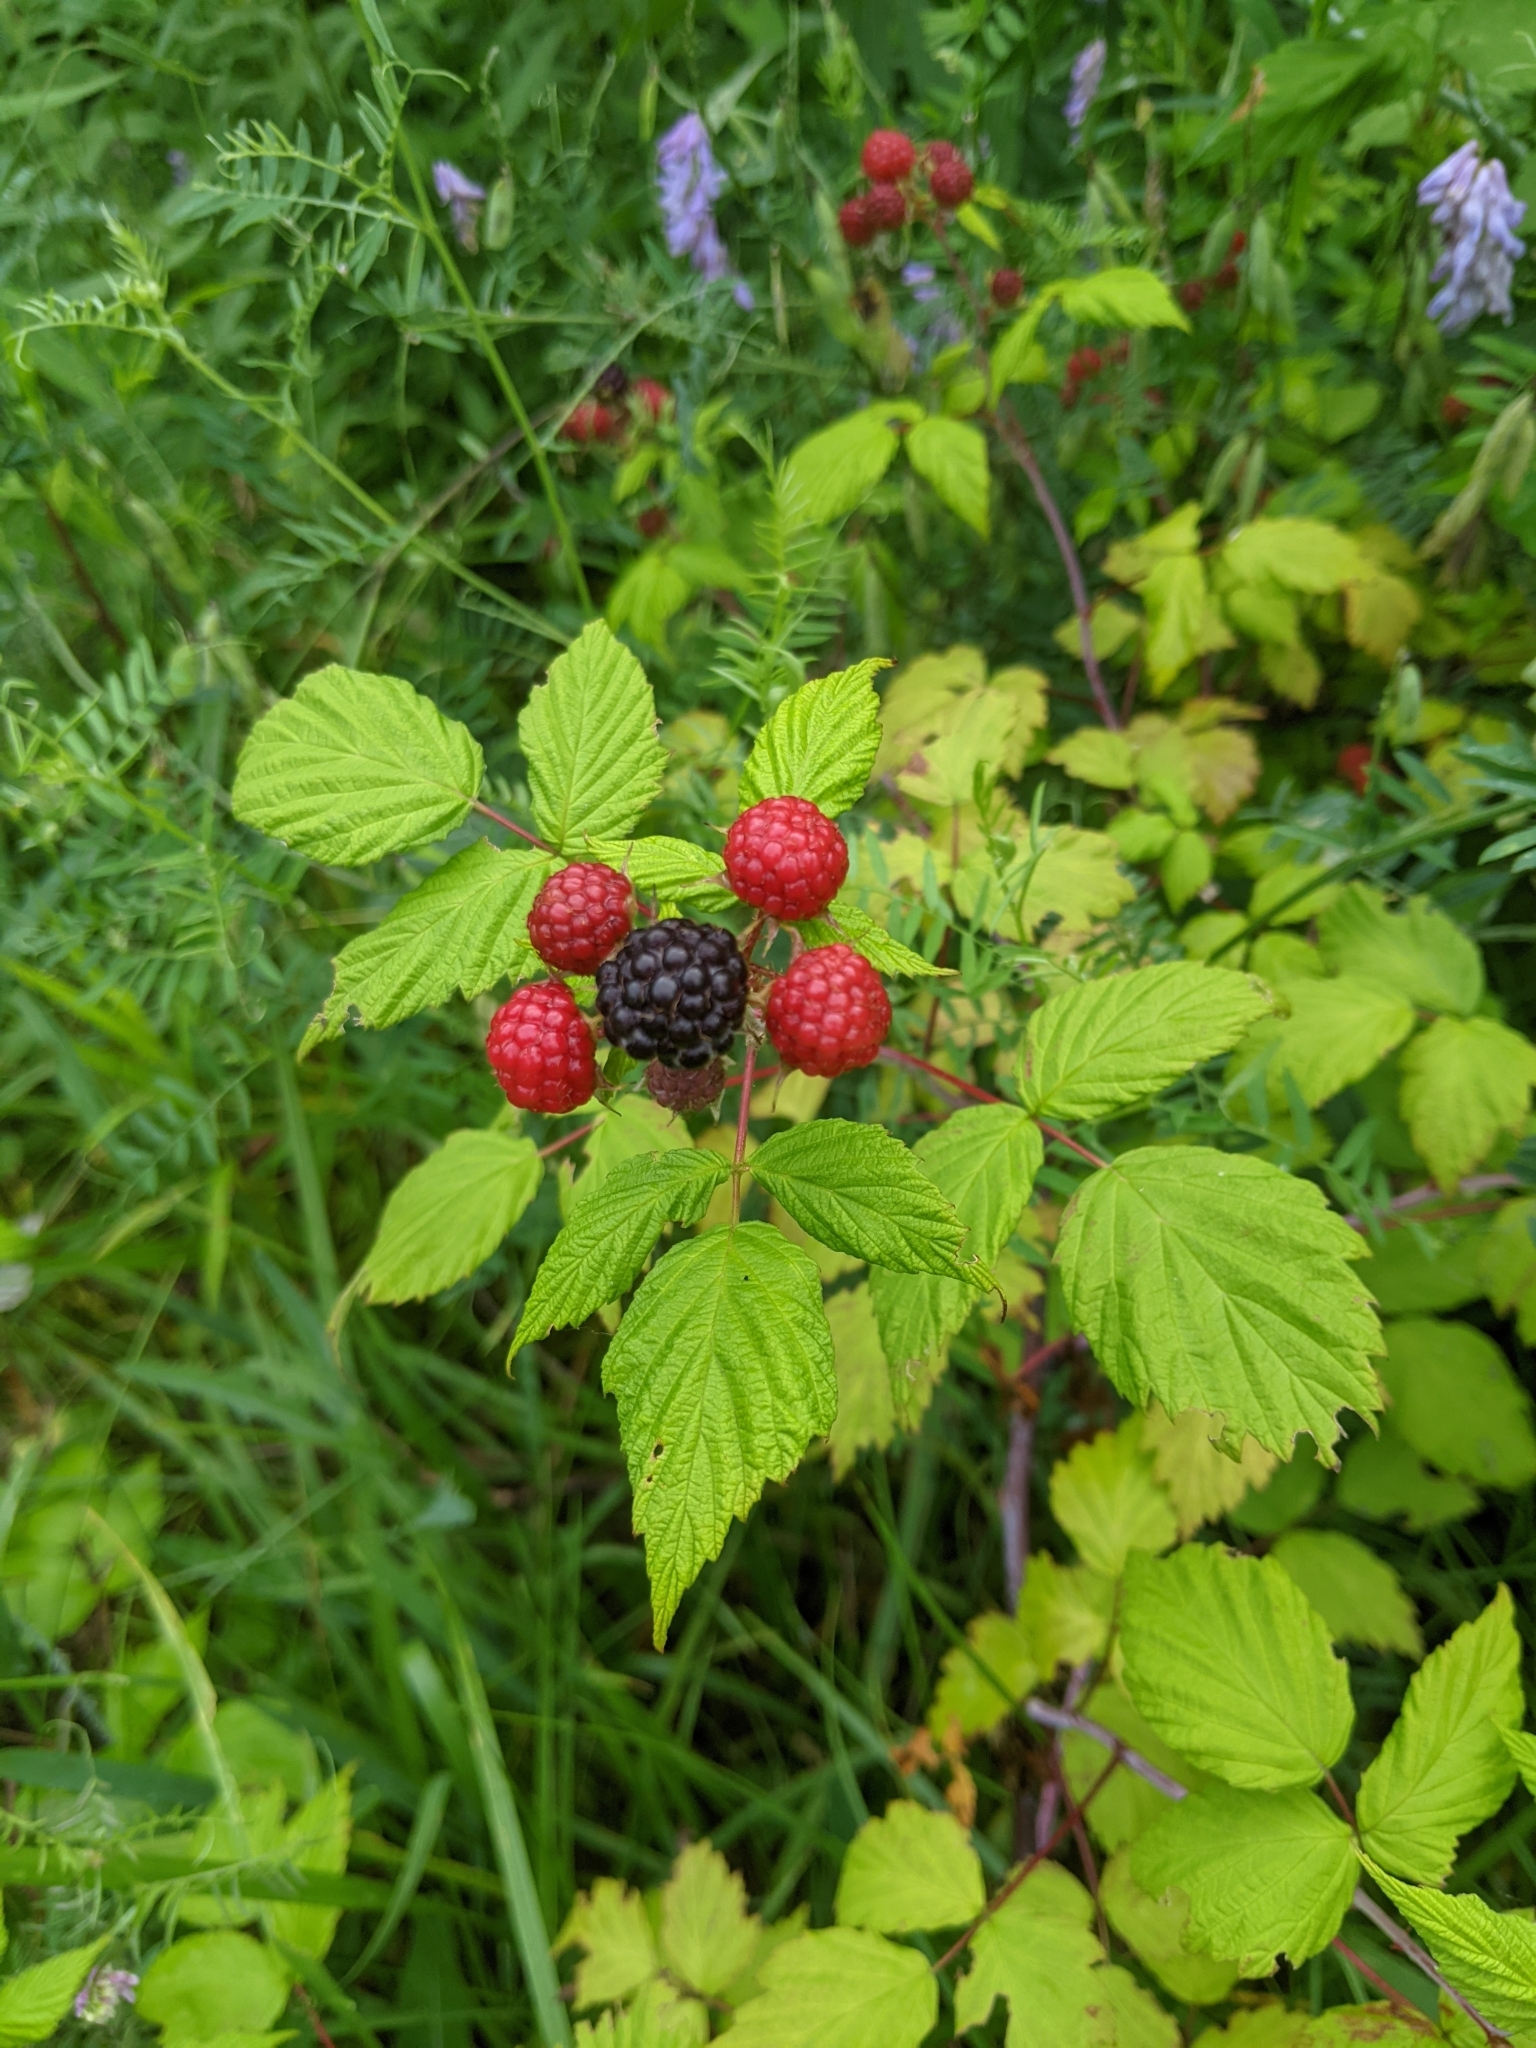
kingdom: Plantae
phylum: Tracheophyta
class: Magnoliopsida
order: Rosales
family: Rosaceae
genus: Rubus
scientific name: Rubus occidentalis
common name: Black raspberry
